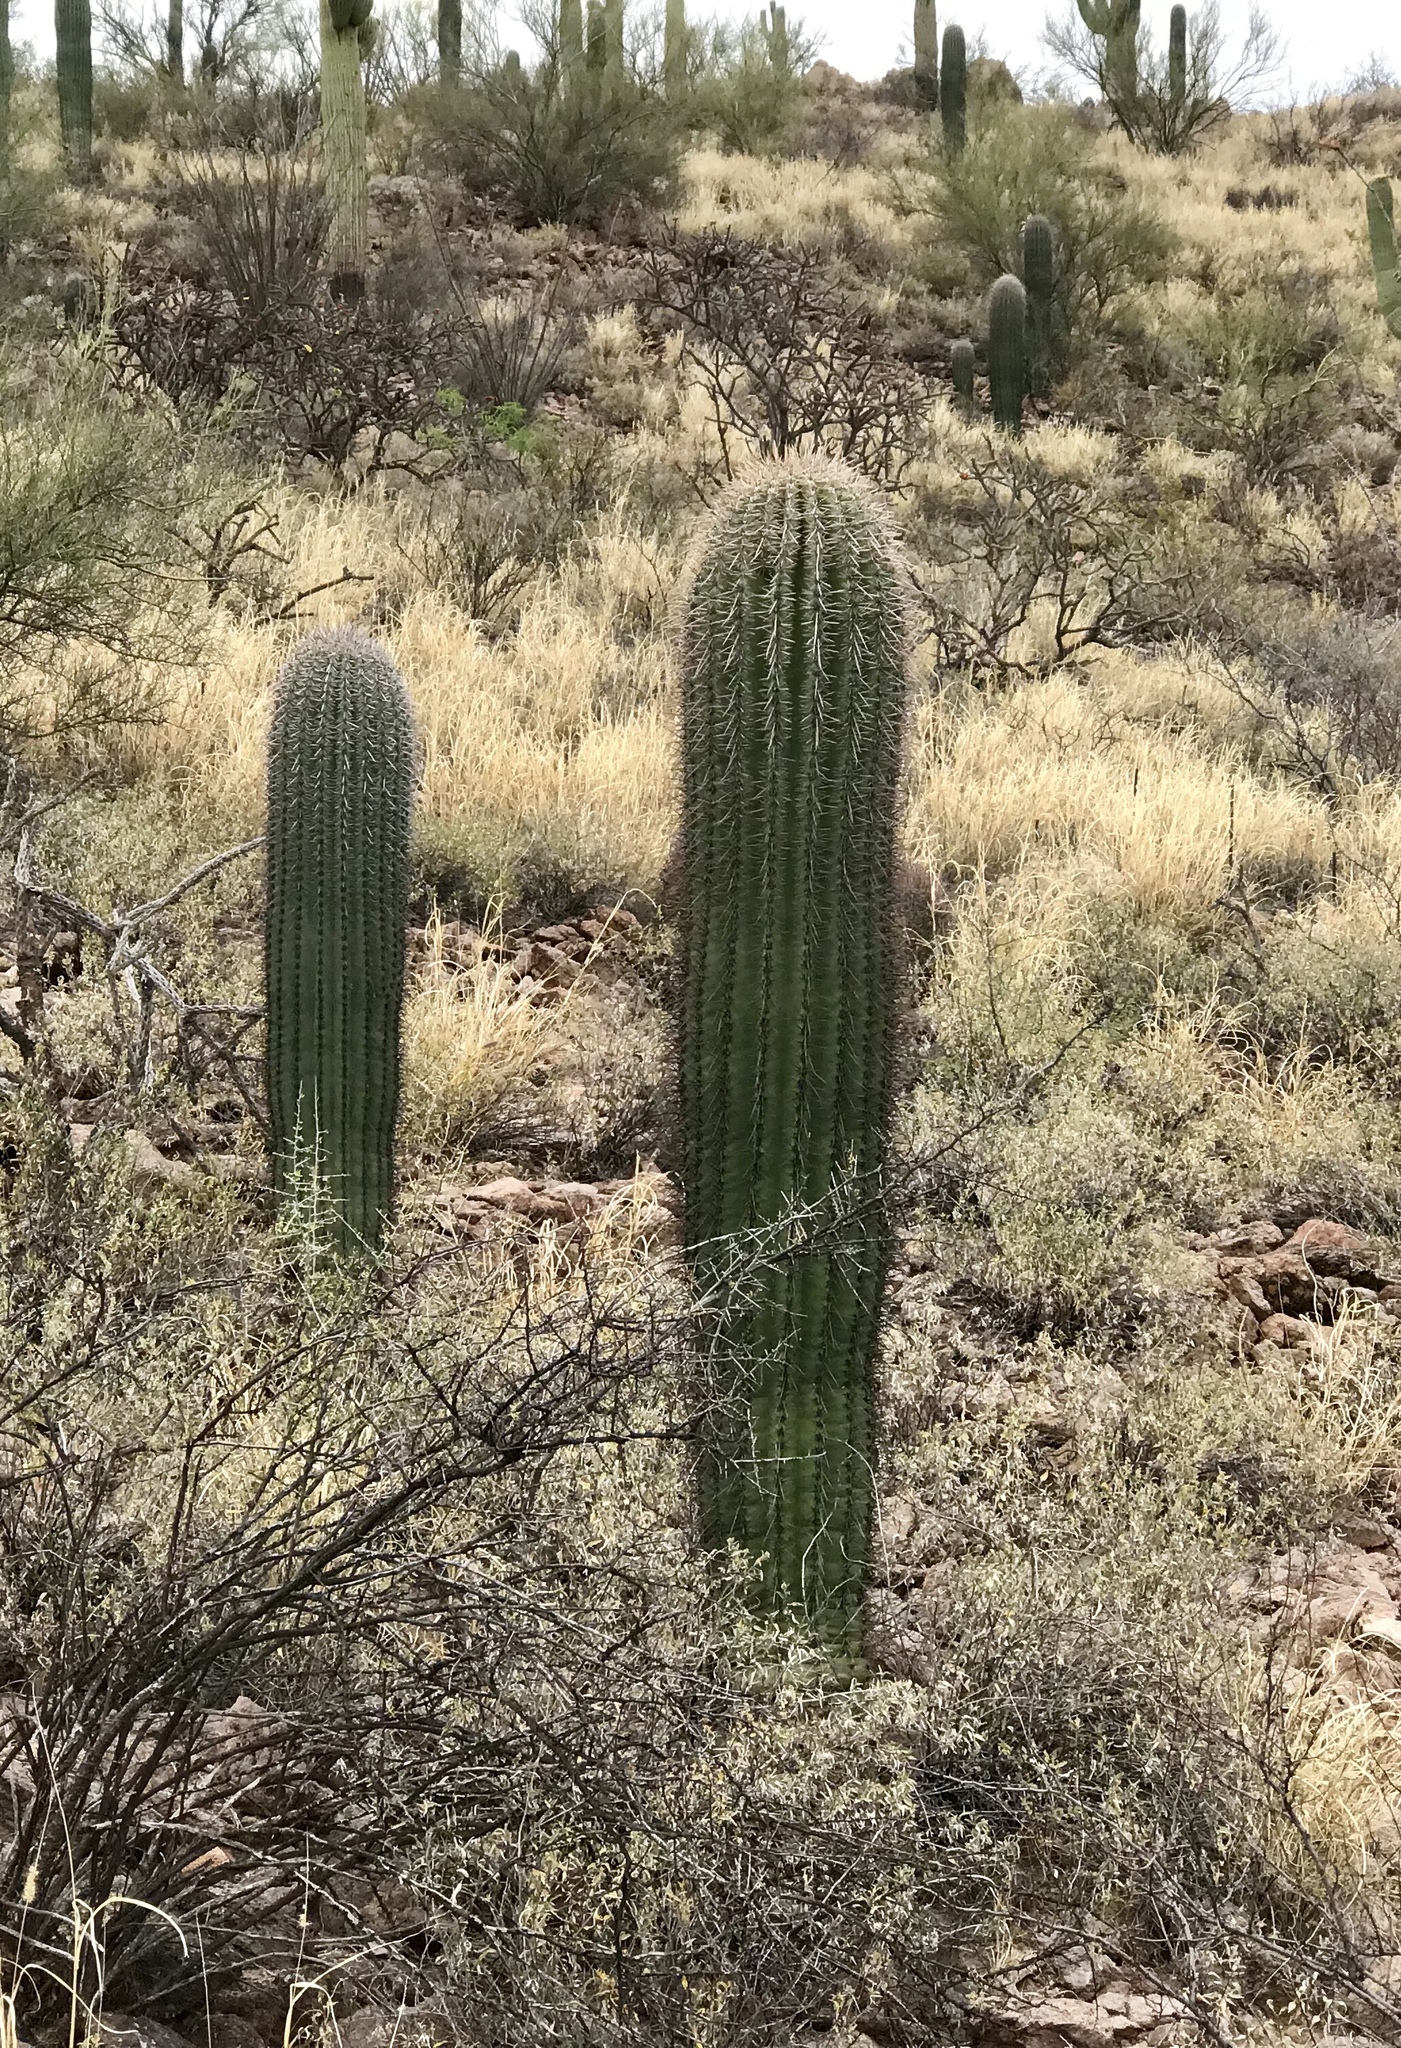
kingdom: Plantae
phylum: Tracheophyta
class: Magnoliopsida
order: Caryophyllales
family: Cactaceae
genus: Carnegiea
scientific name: Carnegiea gigantea
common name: Saguaro
